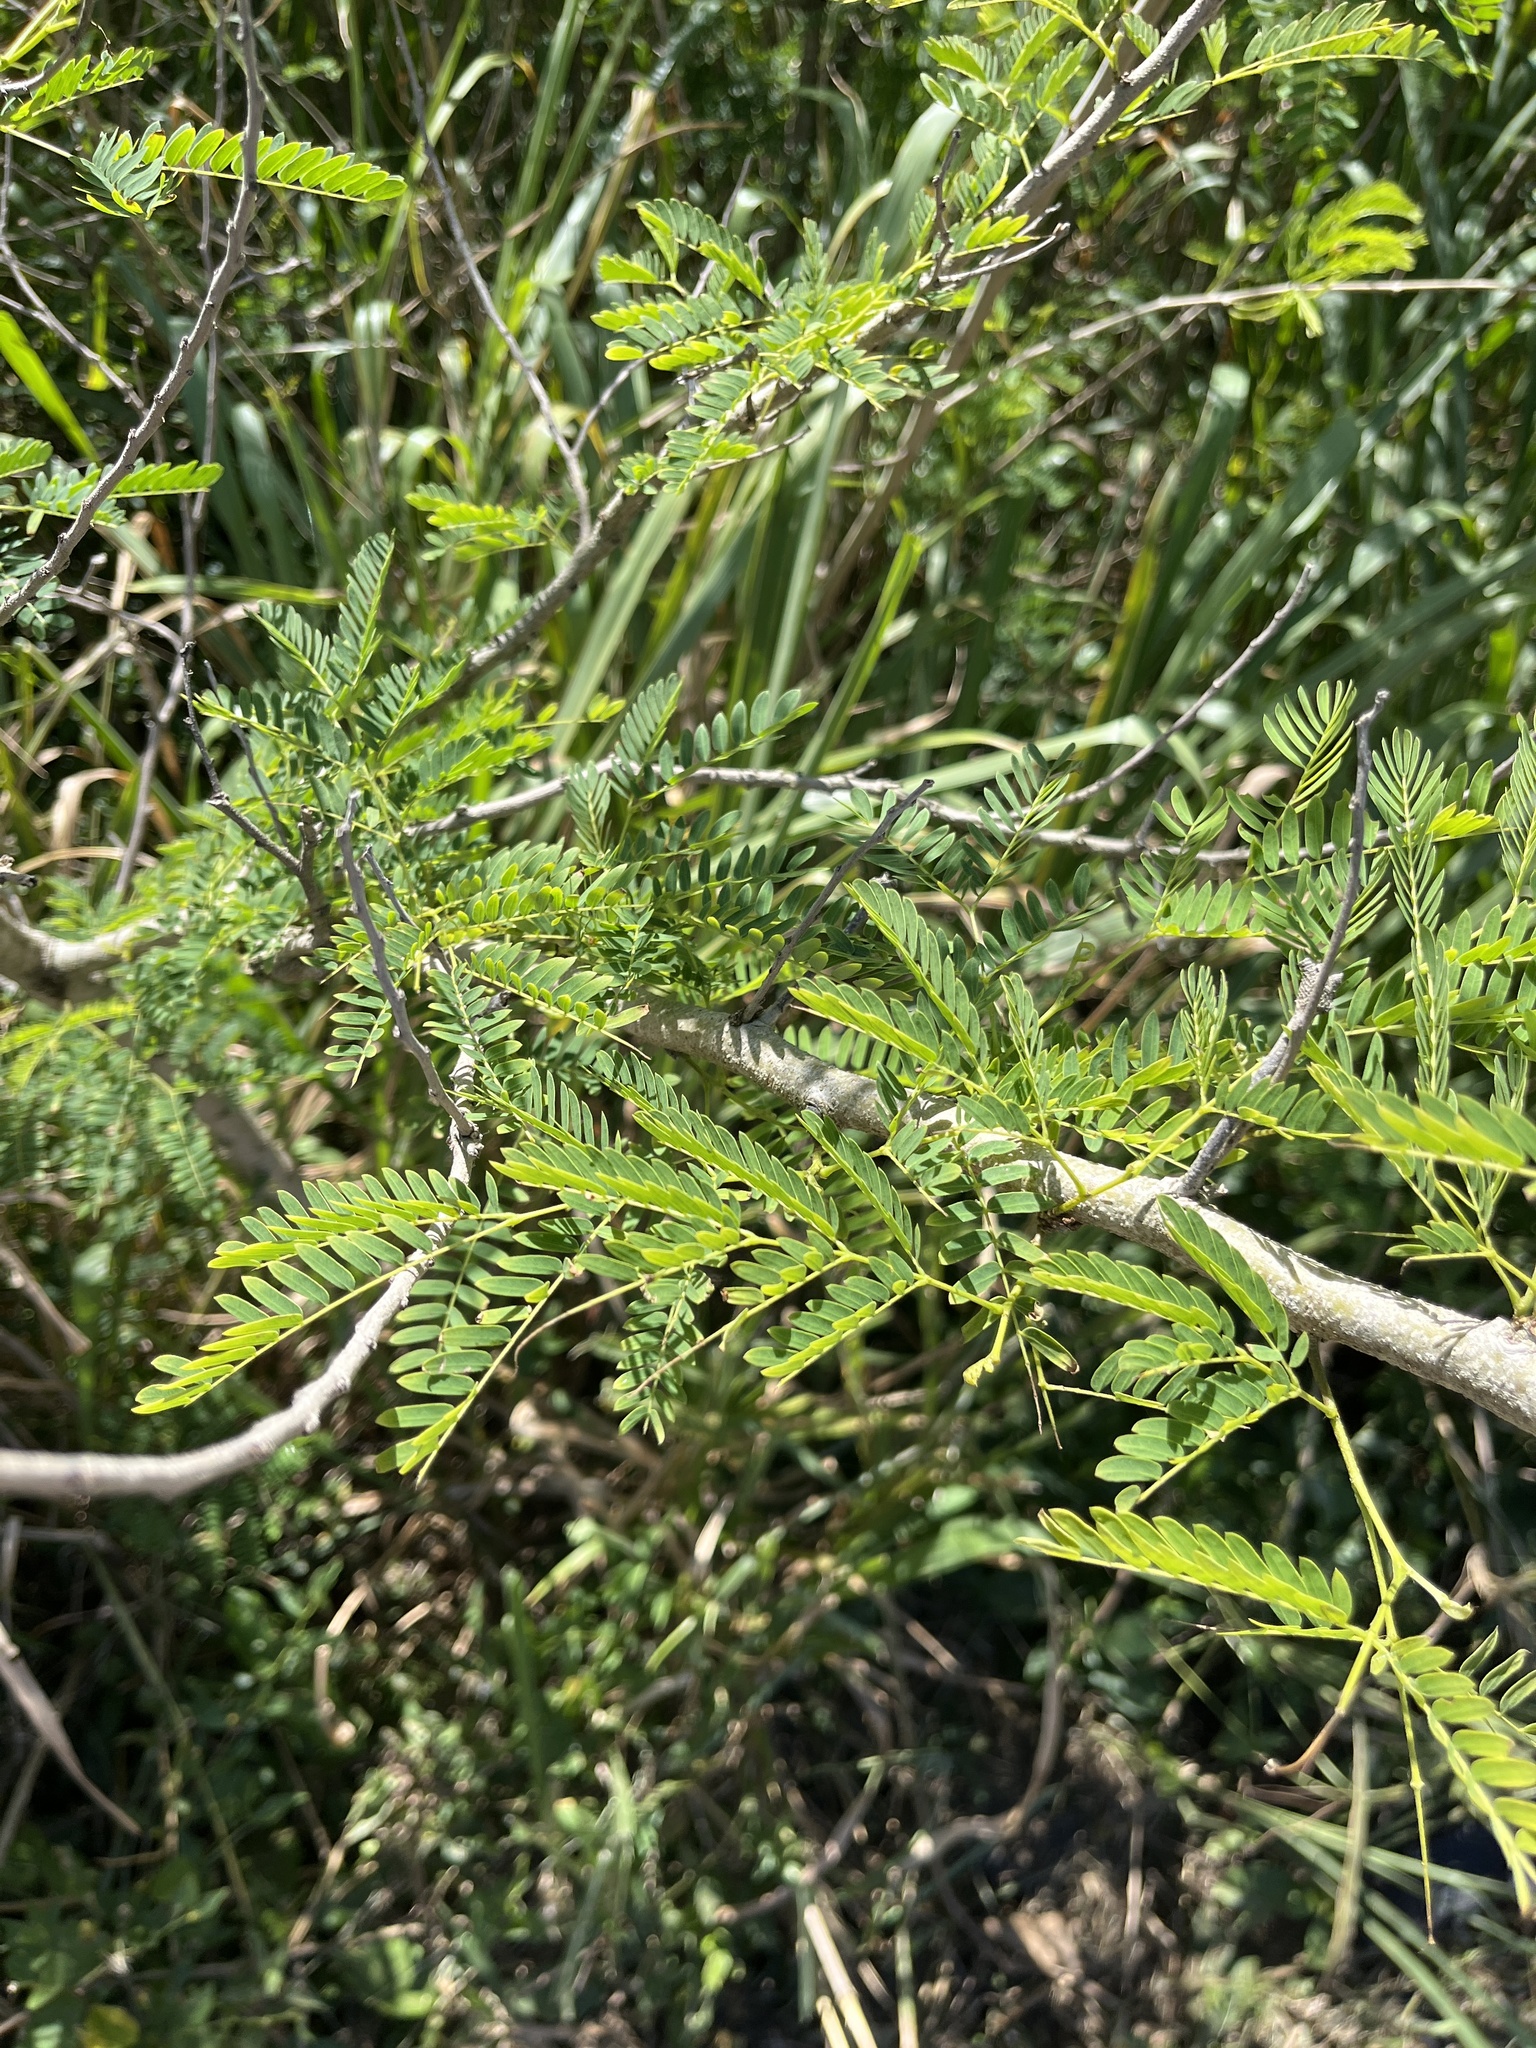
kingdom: Plantae
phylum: Tracheophyta
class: Magnoliopsida
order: Fabales
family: Fabaceae
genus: Leucaena
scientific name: Leucaena leucocephala
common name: White leadtree
